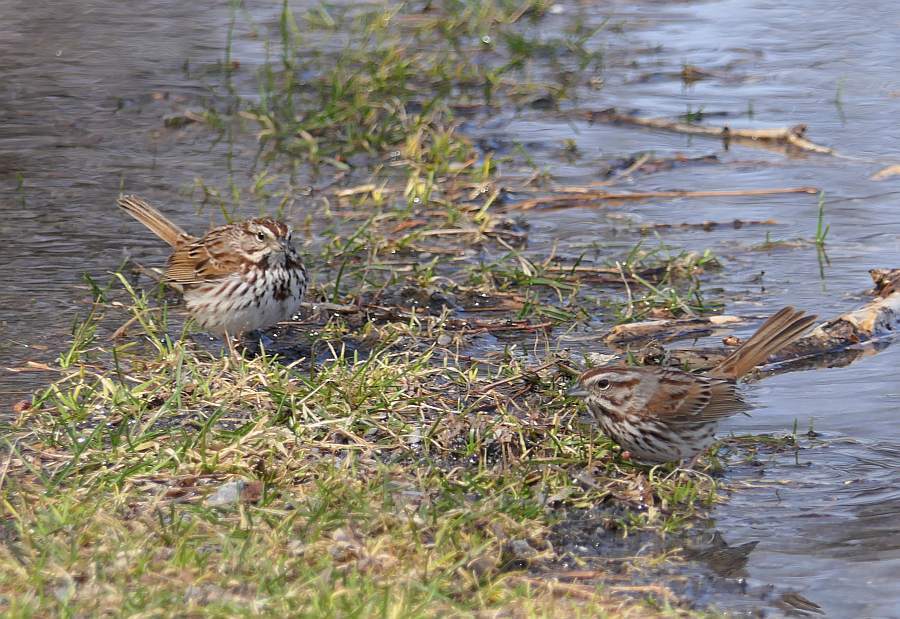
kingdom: Animalia
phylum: Chordata
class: Aves
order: Passeriformes
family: Passerellidae
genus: Melospiza
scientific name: Melospiza melodia
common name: Song sparrow
